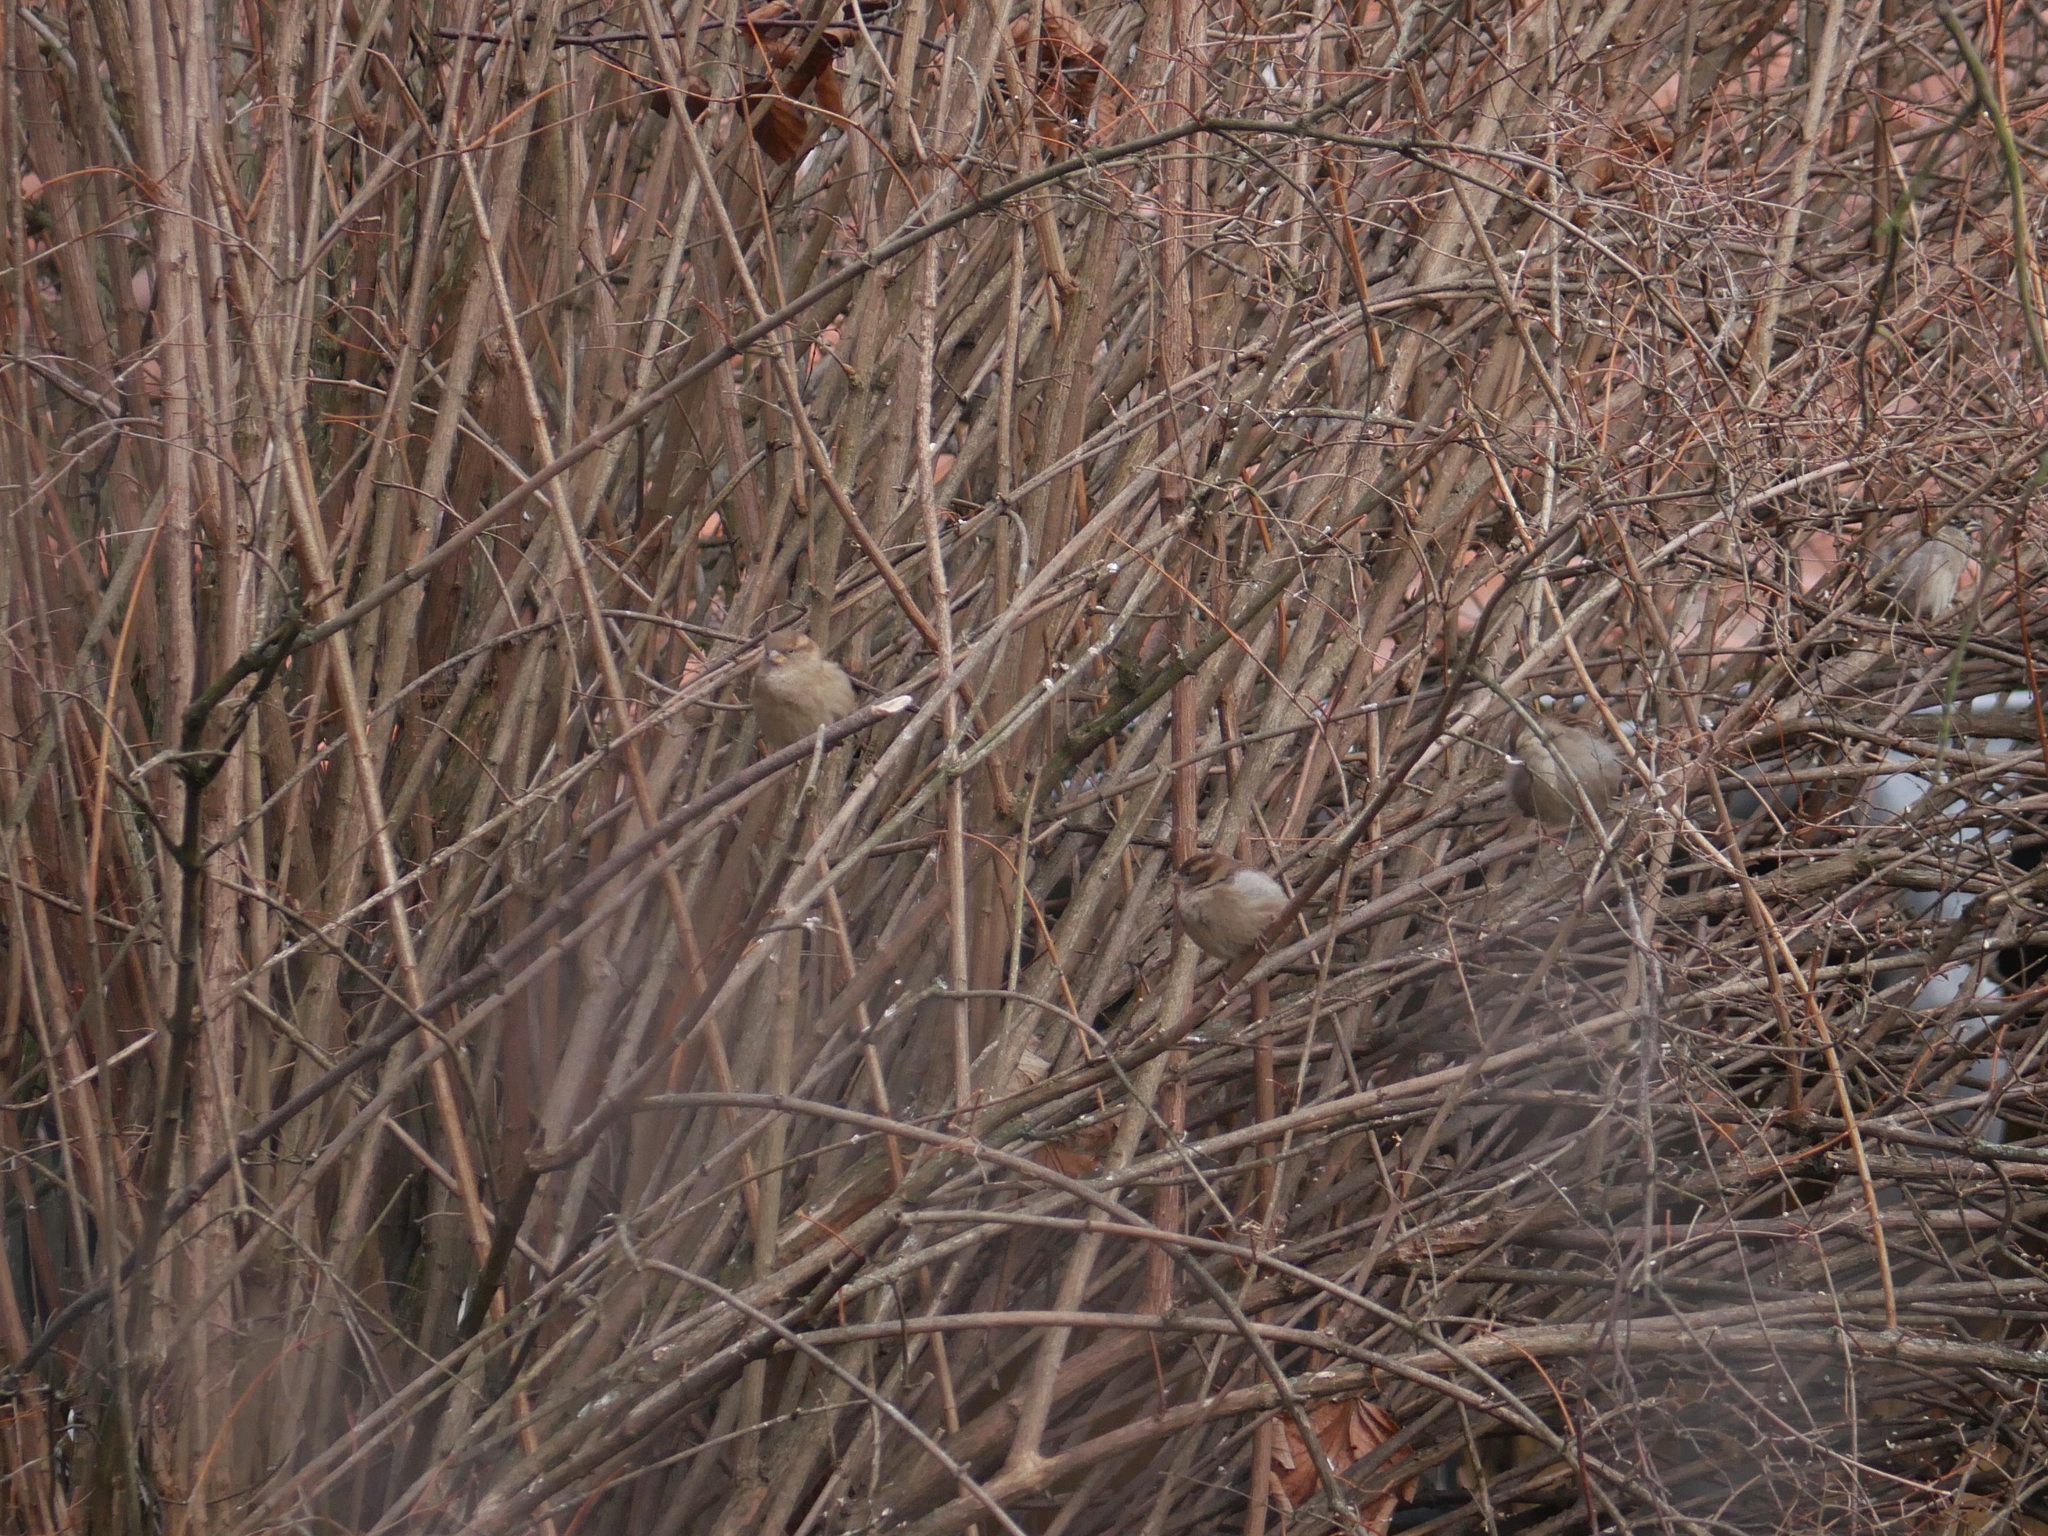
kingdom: Animalia
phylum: Chordata
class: Aves
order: Passeriformes
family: Passeridae
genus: Passer
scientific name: Passer domesticus
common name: House sparrow
